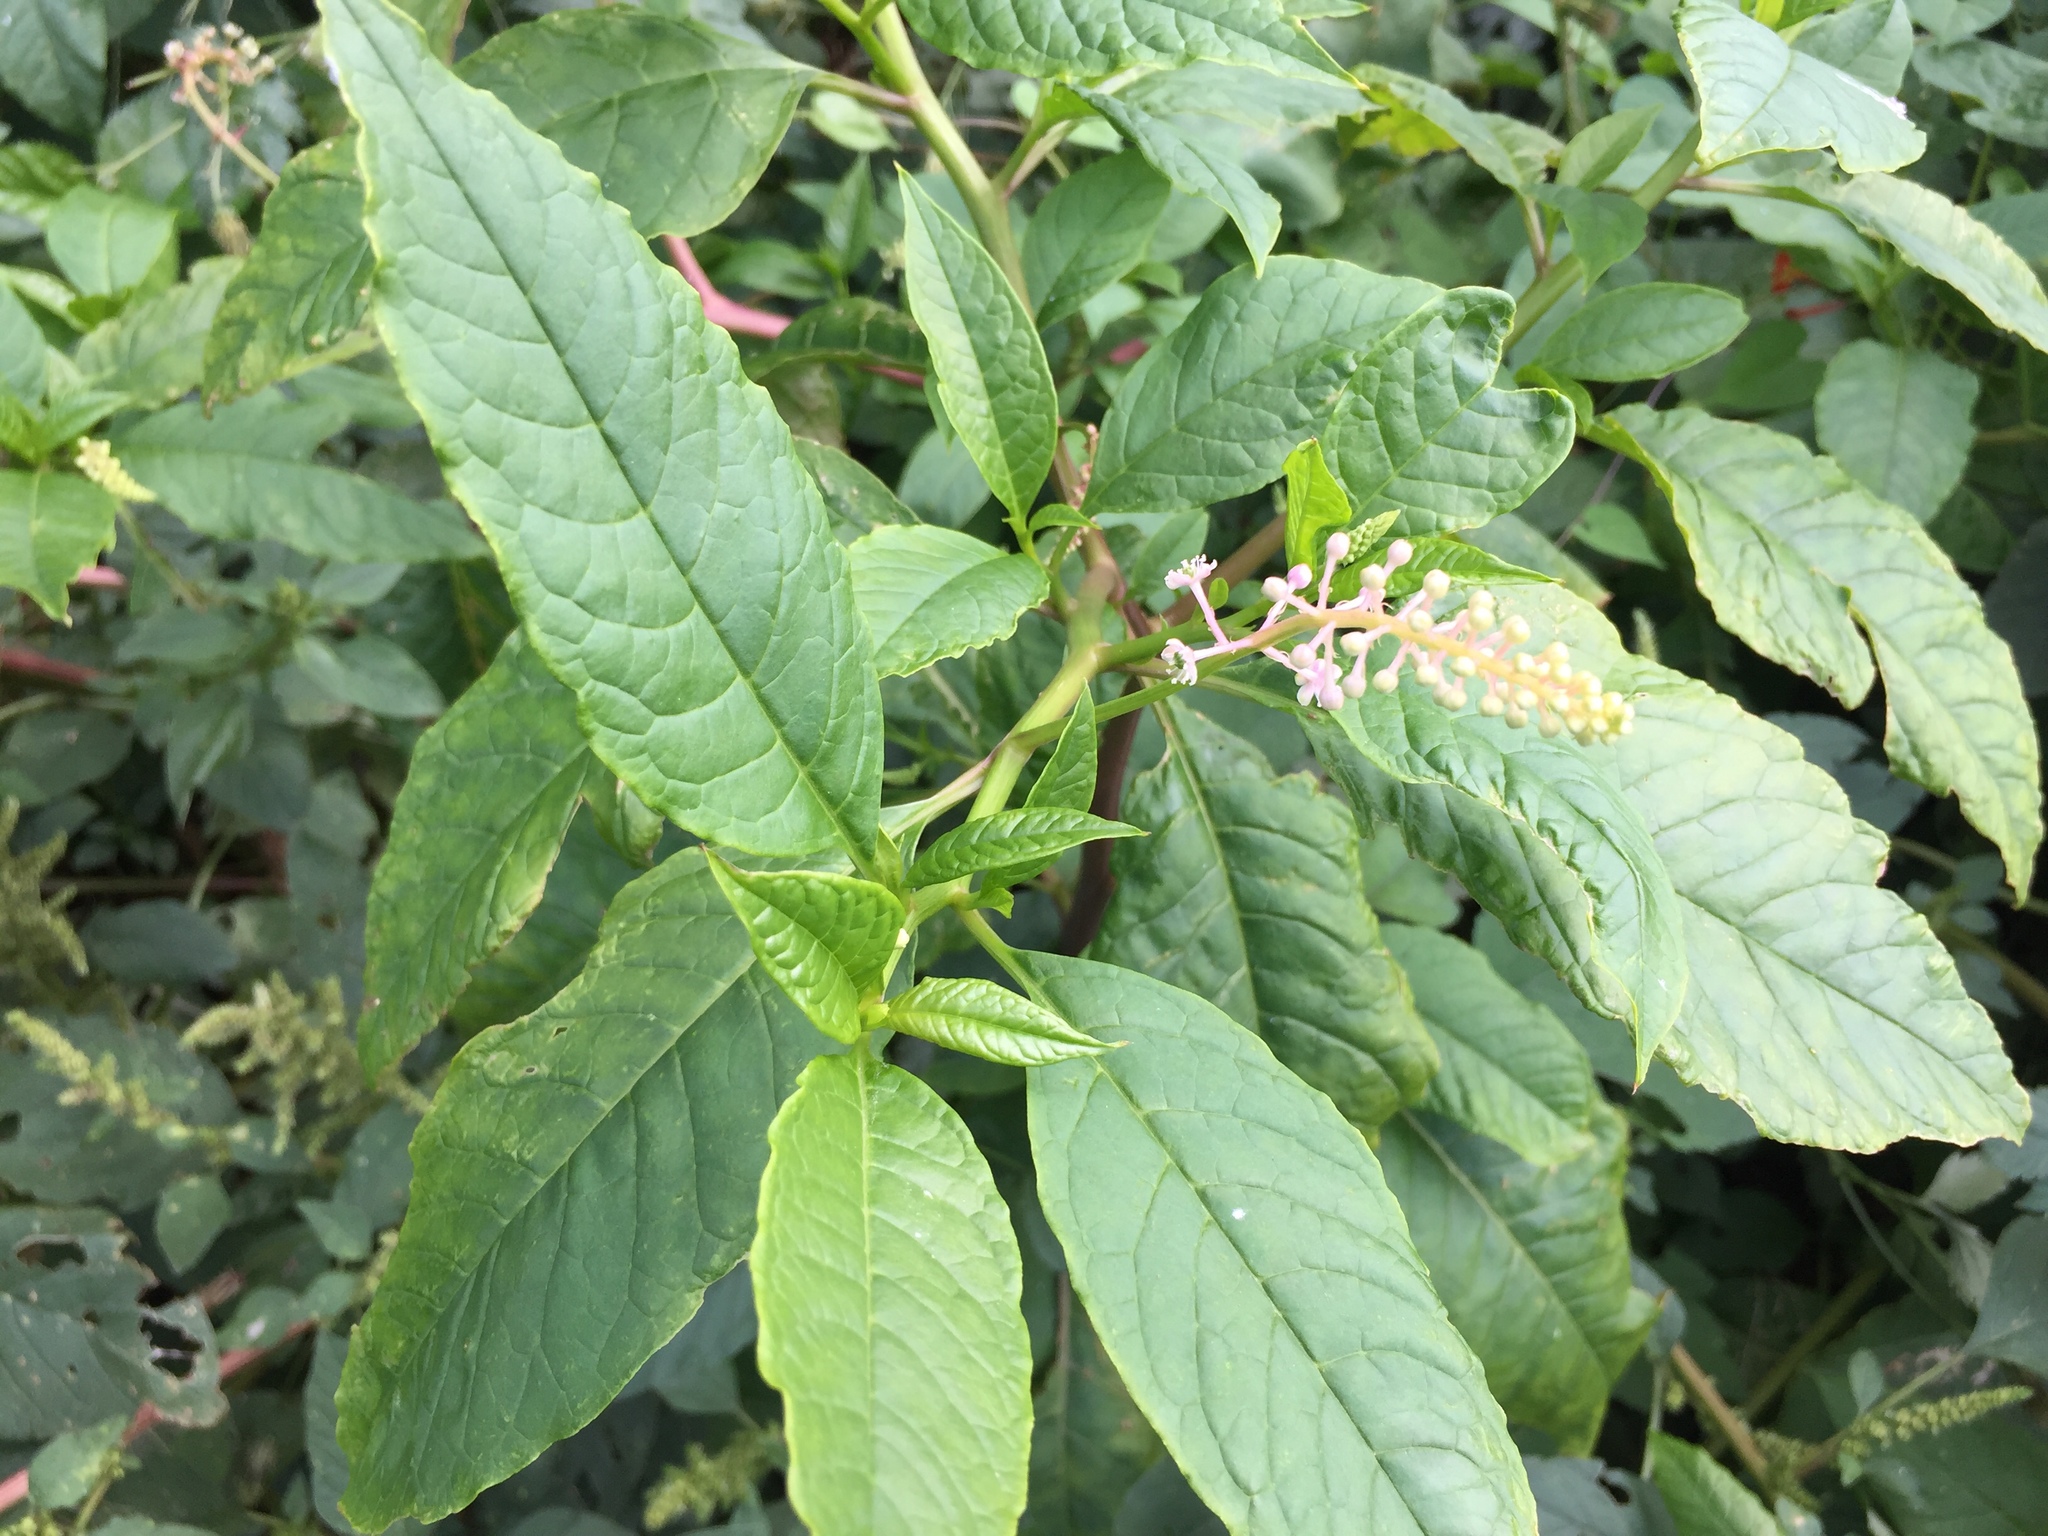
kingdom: Plantae
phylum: Tracheophyta
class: Magnoliopsida
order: Caryophyllales
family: Phytolaccaceae
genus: Phytolacca
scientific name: Phytolacca americana
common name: American pokeweed
